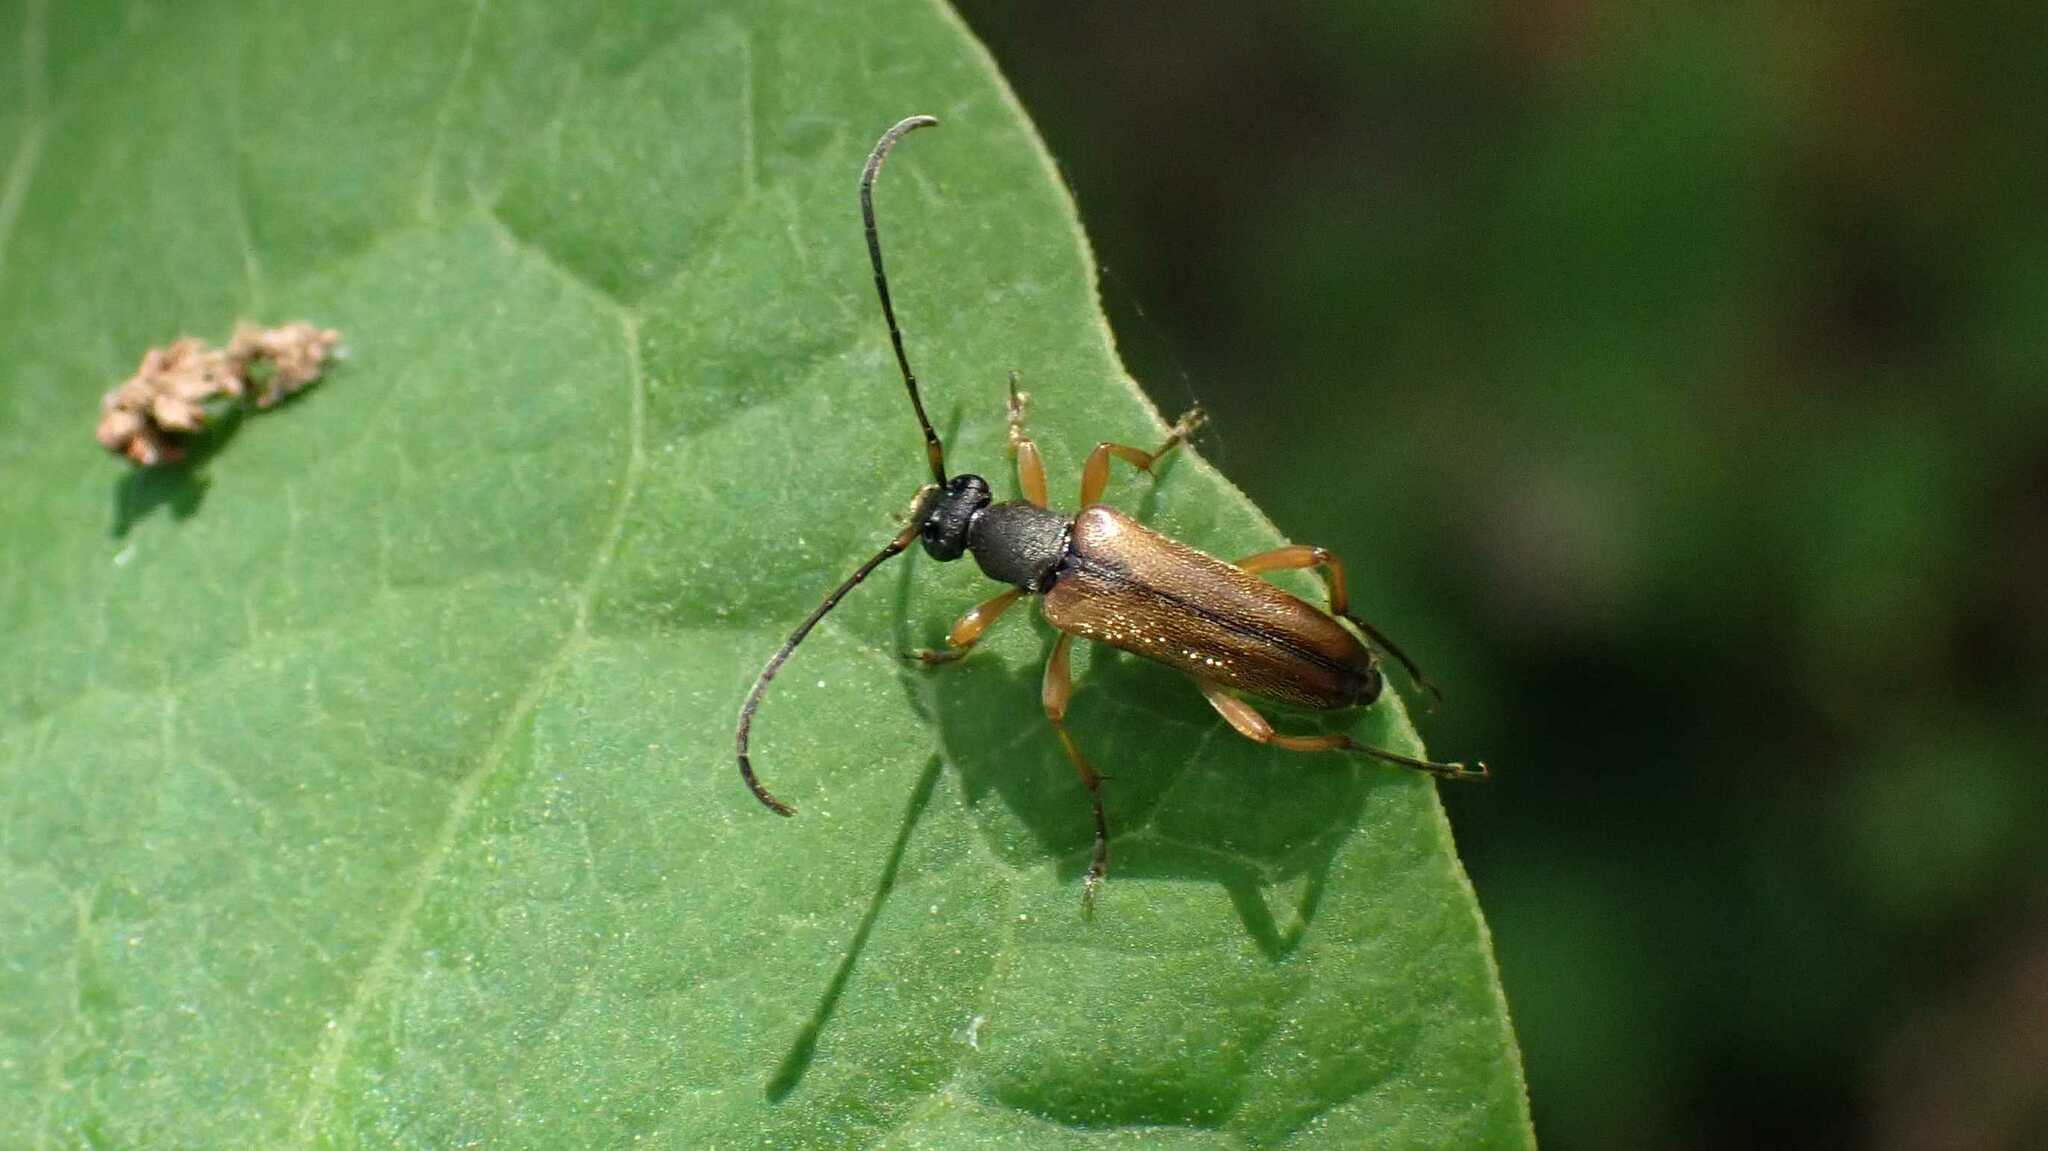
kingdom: Animalia
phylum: Arthropoda
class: Insecta
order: Coleoptera
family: Cerambycidae
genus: Alosterna
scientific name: Alosterna tabacicolor
